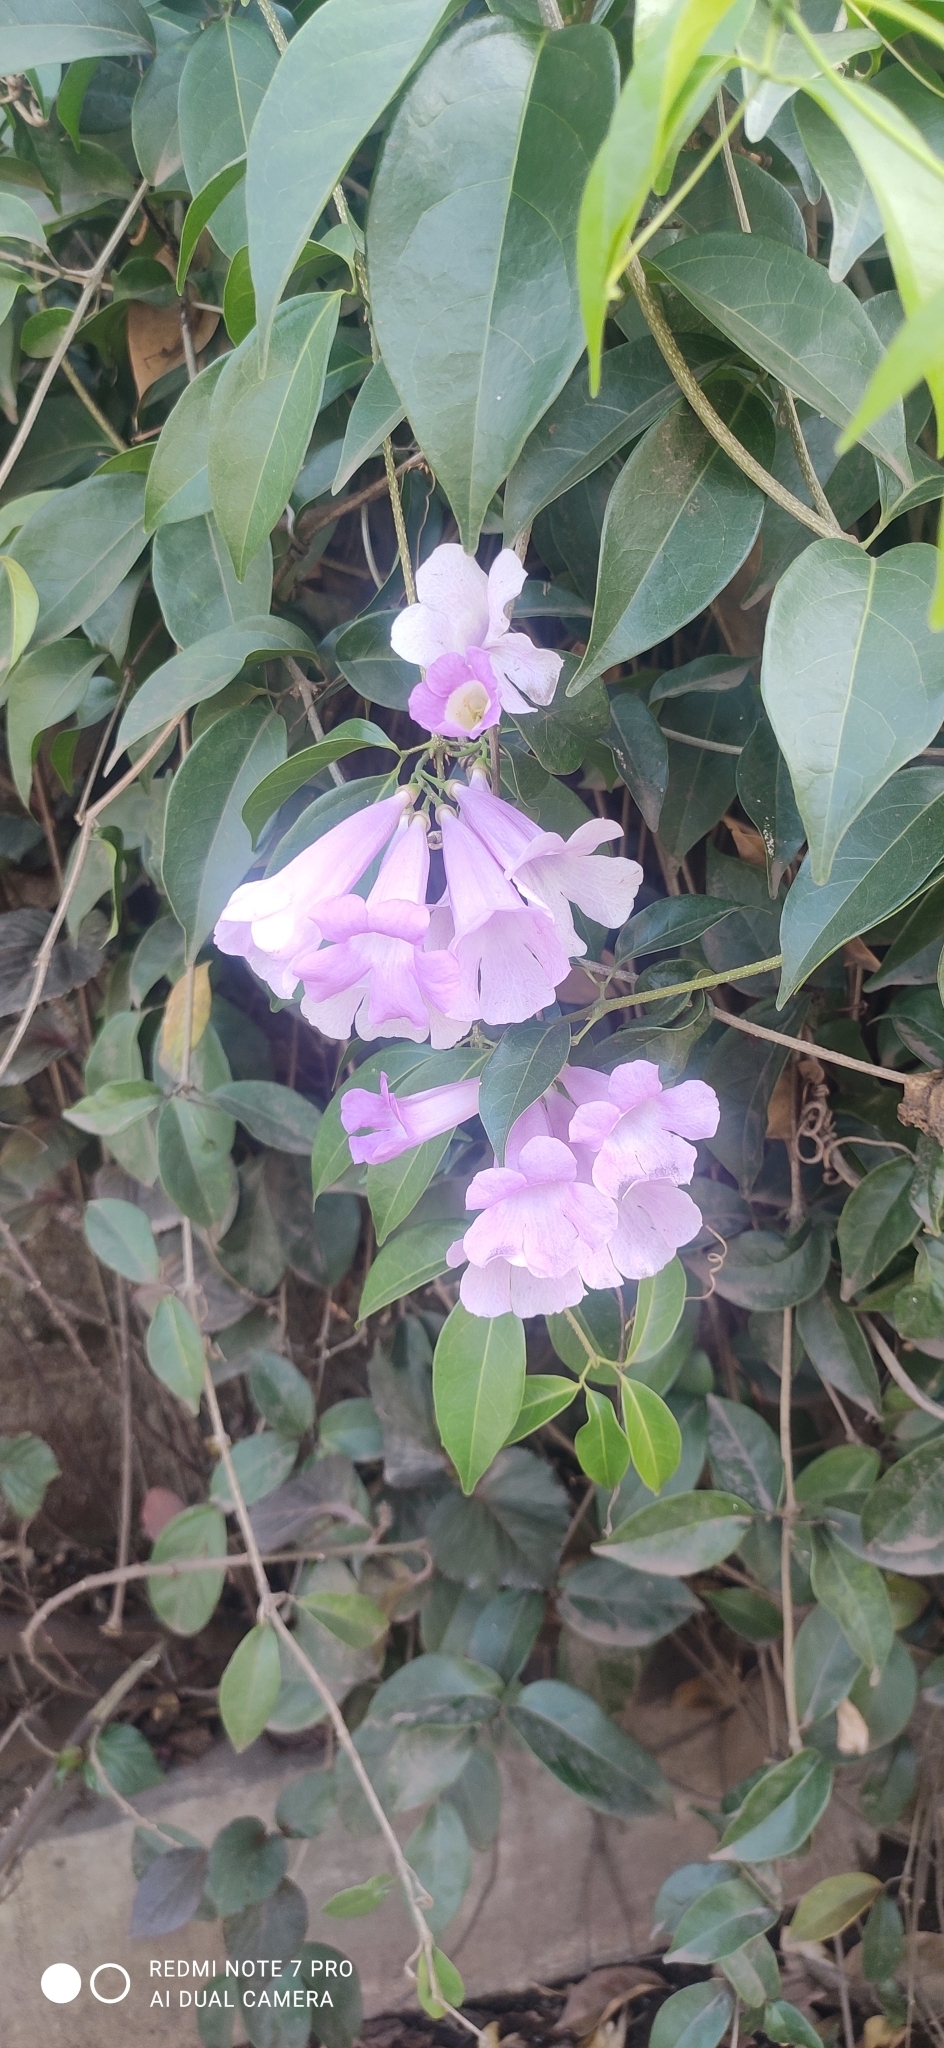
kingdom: Plantae
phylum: Tracheophyta
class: Magnoliopsida
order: Lamiales
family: Bignoniaceae
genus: Mansoa
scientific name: Mansoa alliacea
